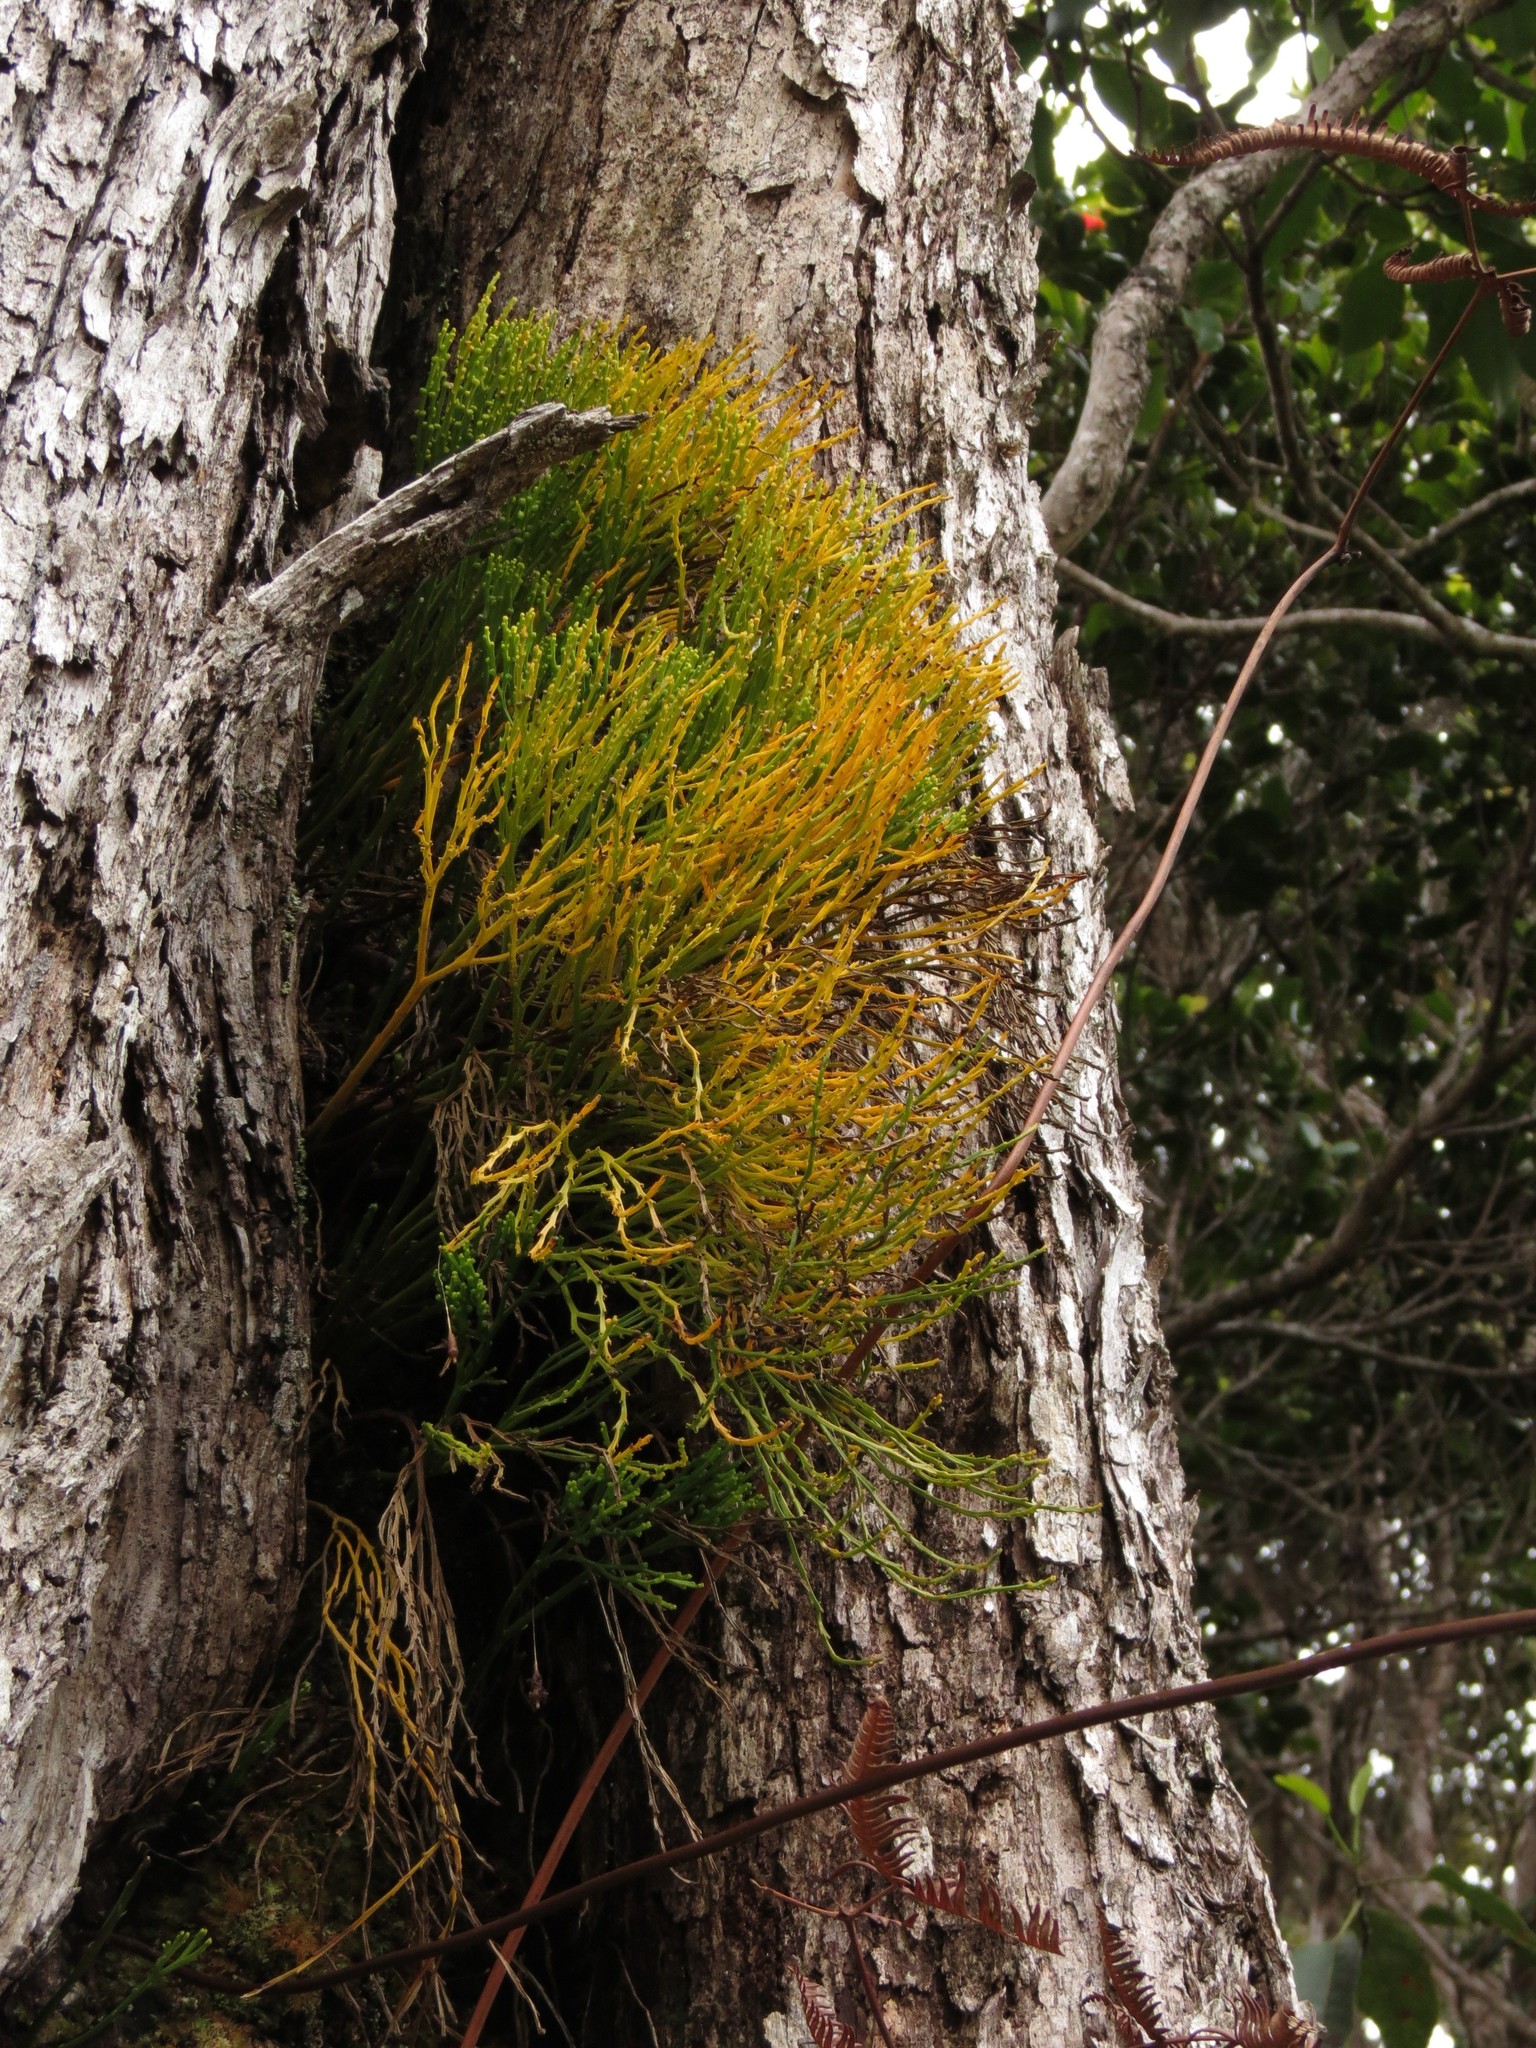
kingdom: Plantae
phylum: Tracheophyta
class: Polypodiopsida
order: Psilotales
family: Psilotaceae
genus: Psilotum
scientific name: Psilotum nudum
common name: Skeleton fork fern
